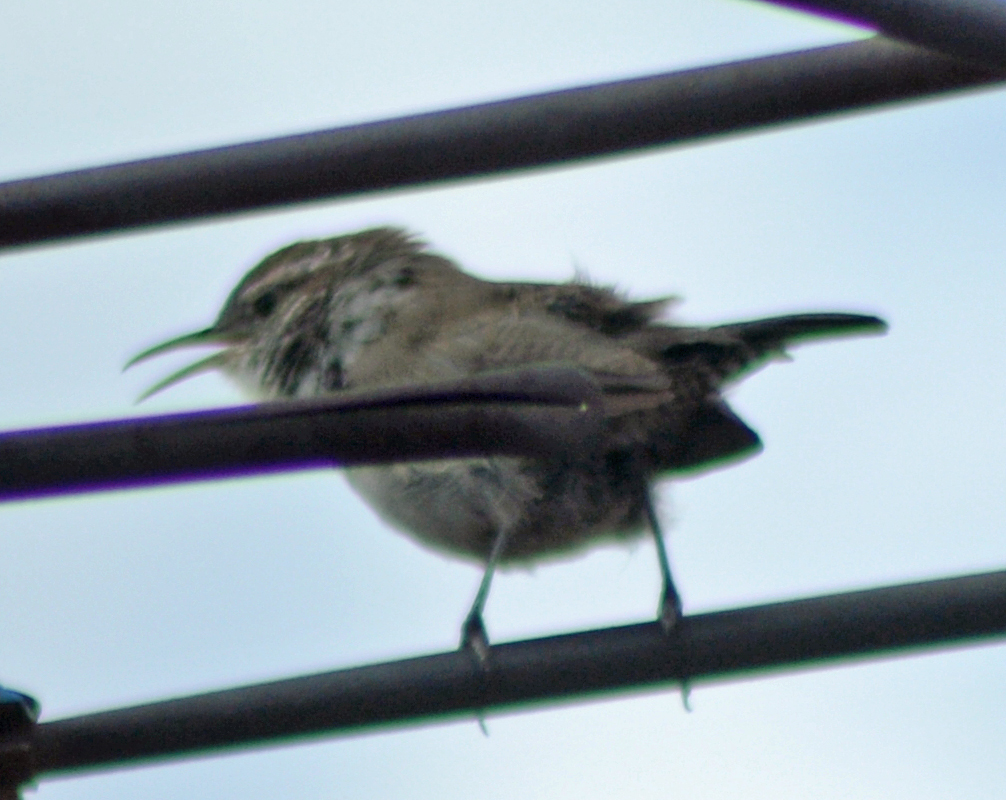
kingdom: Animalia
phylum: Chordata
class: Aves
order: Passeriformes
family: Troglodytidae
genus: Thryomanes
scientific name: Thryomanes bewickii
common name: Bewick's wren
